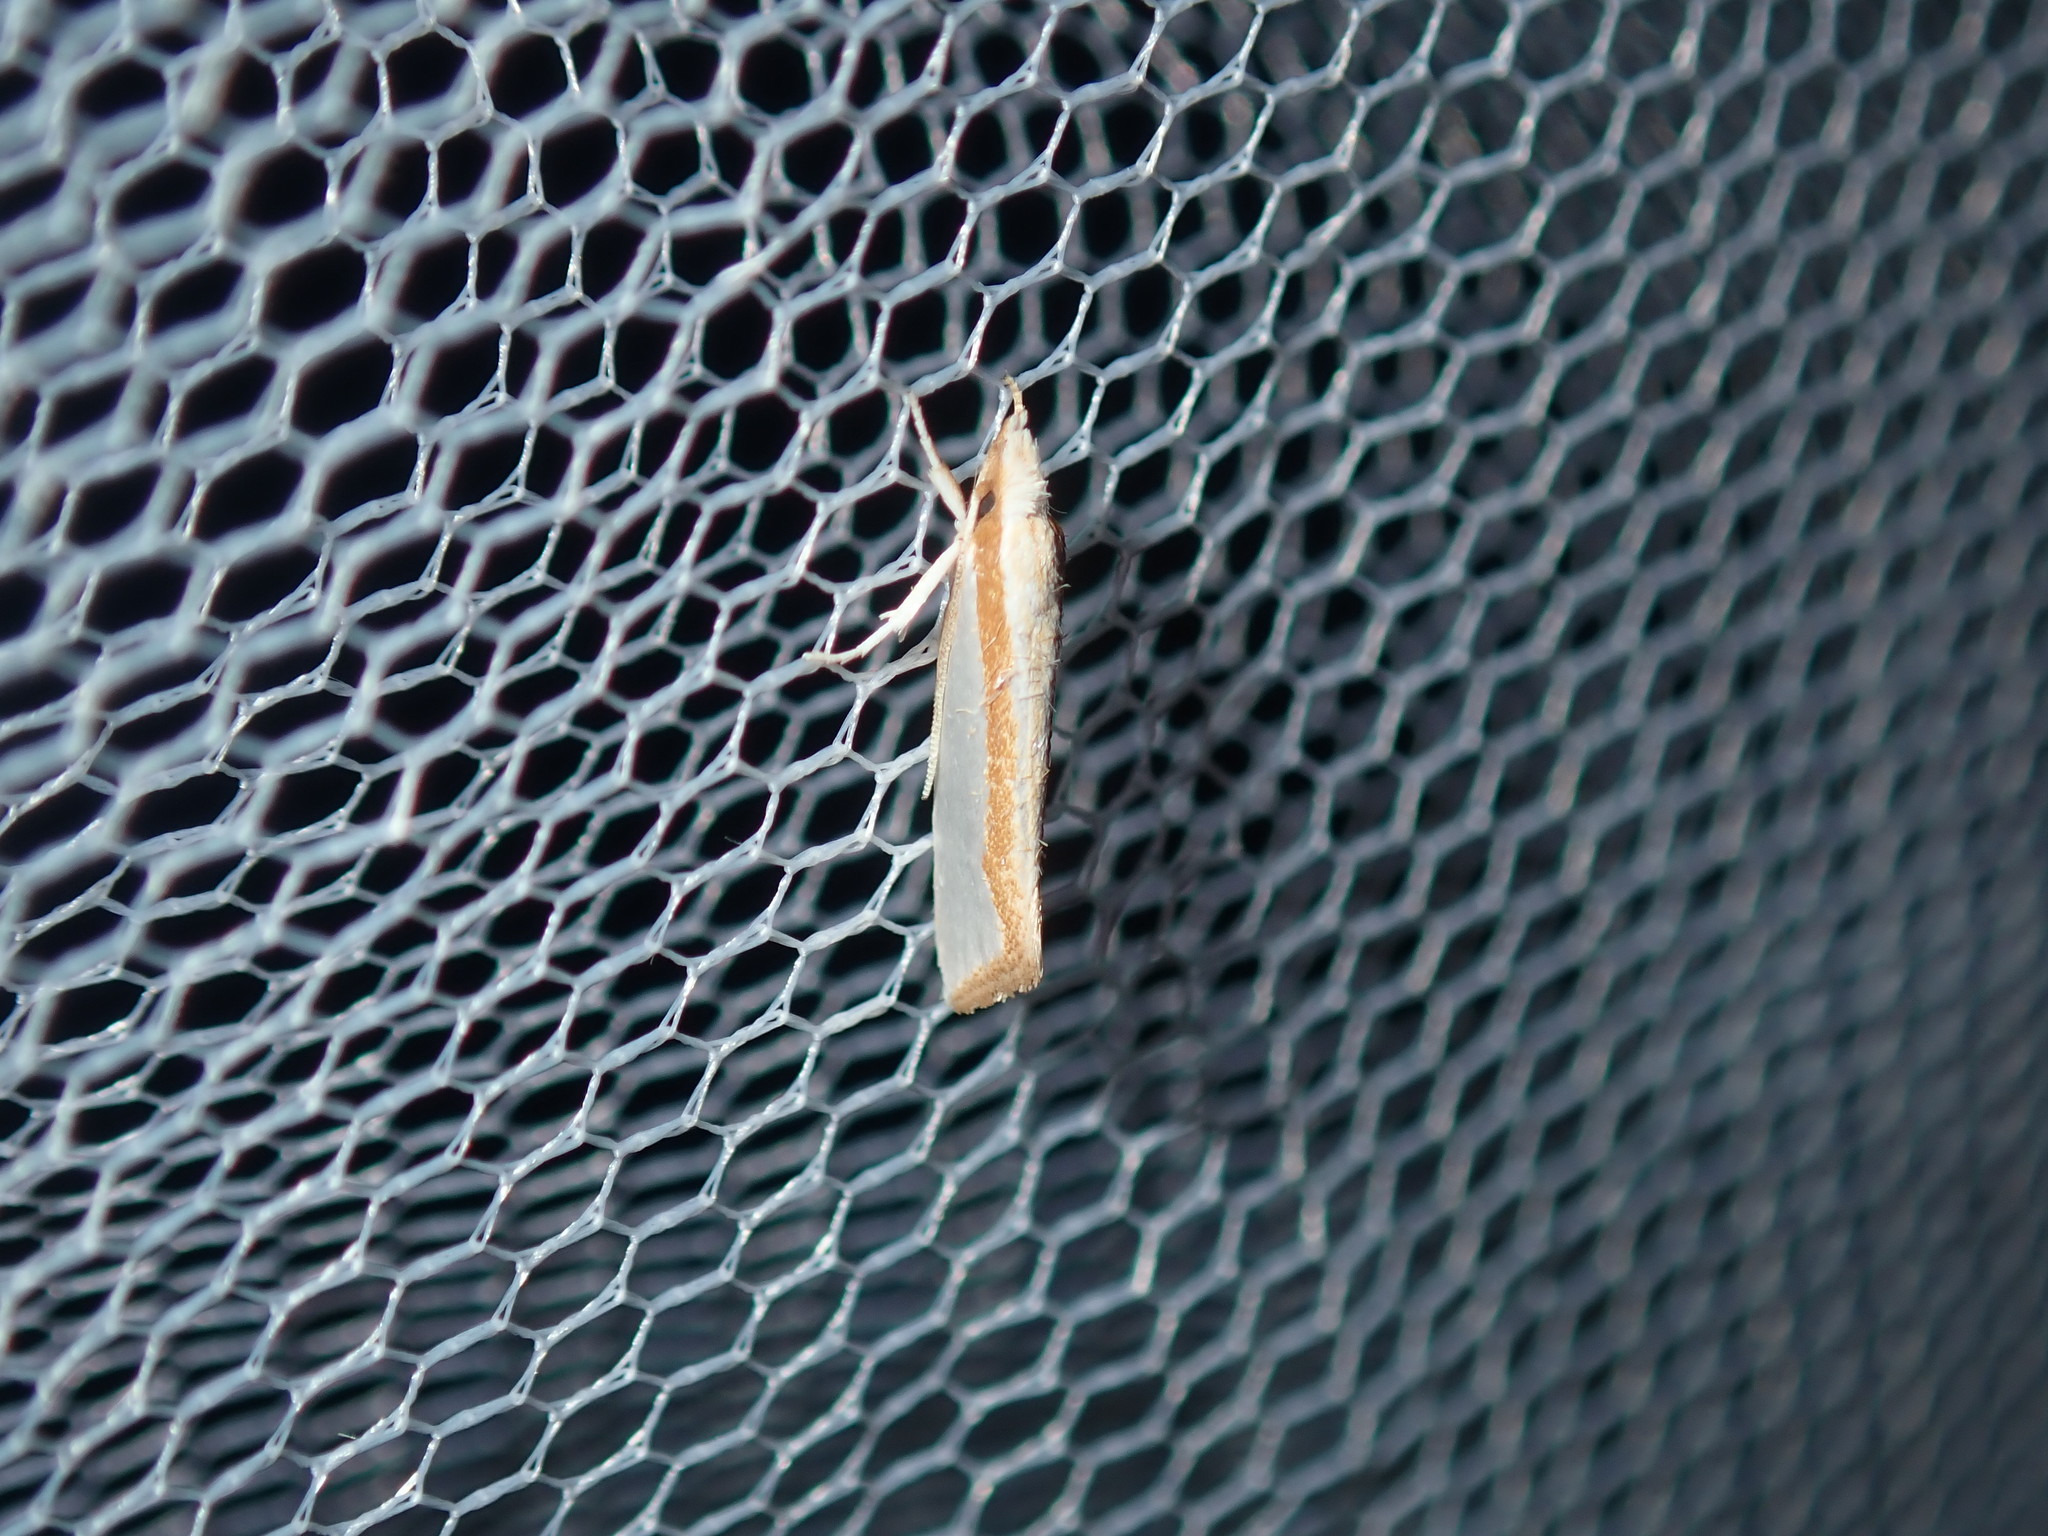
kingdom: Animalia
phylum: Arthropoda
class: Insecta
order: Lepidoptera
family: Depressariidae
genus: Thudaca
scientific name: Thudaca circumdatella
